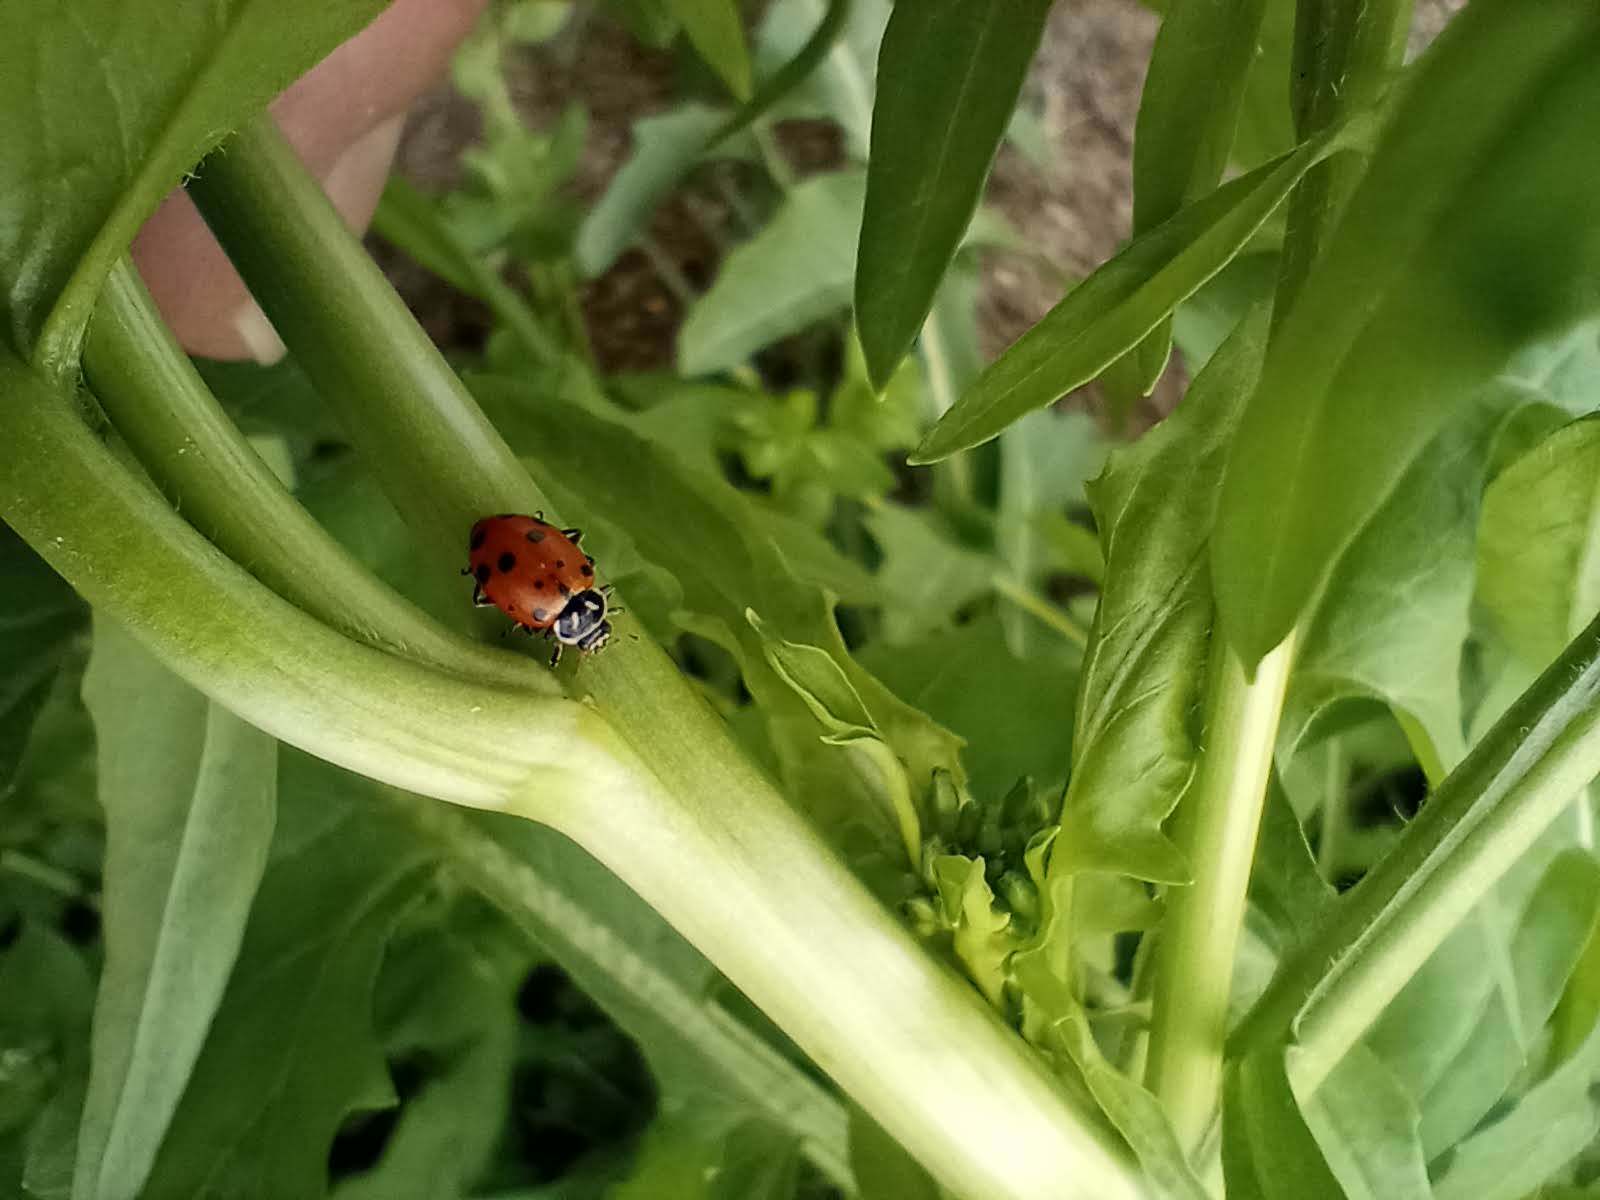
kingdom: Animalia
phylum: Arthropoda
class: Insecta
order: Coleoptera
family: Coccinellidae
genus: Hippodamia
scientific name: Hippodamia convergens
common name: Convergent lady beetle
